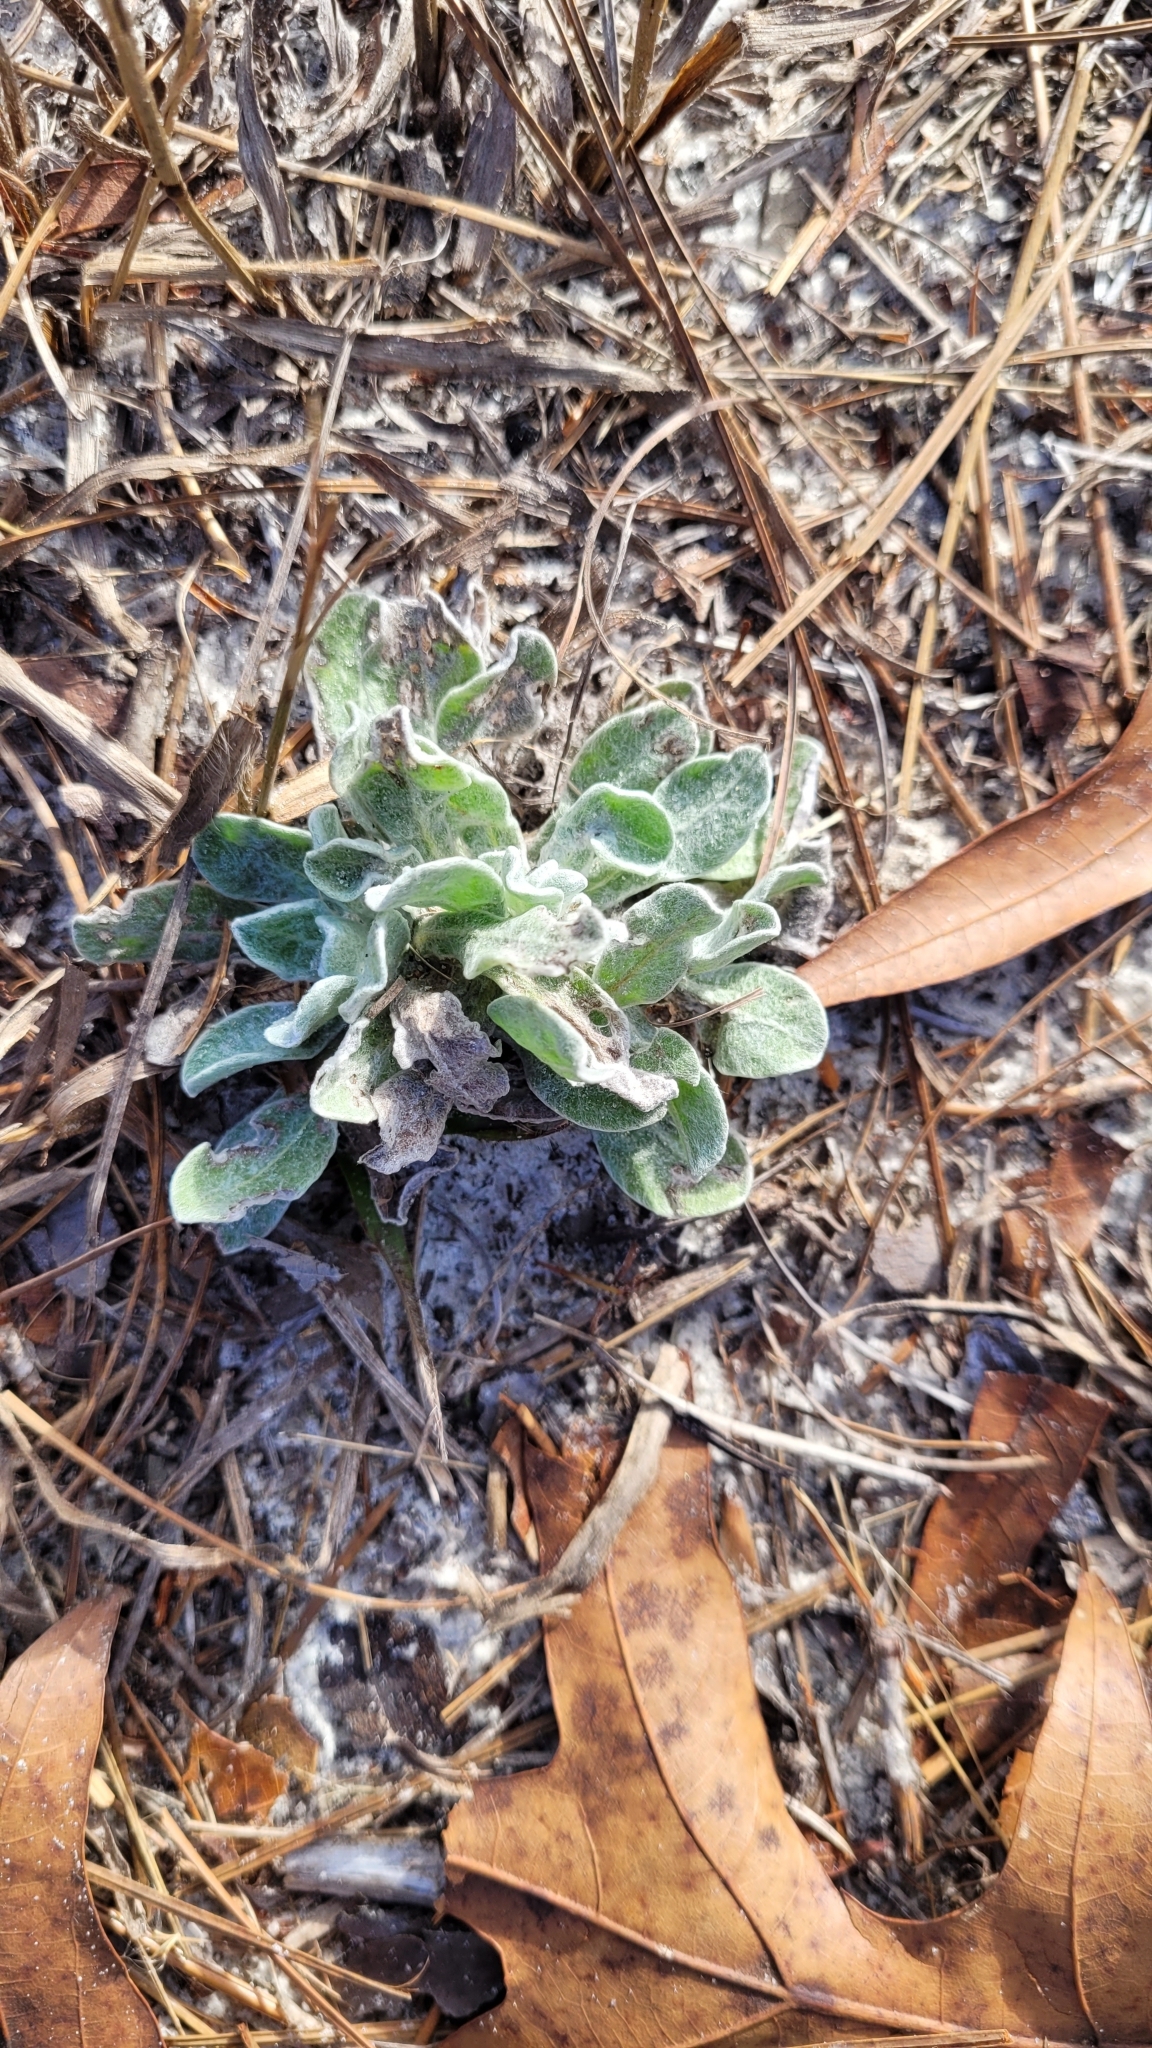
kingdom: Plantae
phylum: Tracheophyta
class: Magnoliopsida
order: Fabales
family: Fabaceae
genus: Lupinus
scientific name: Lupinus villosus
